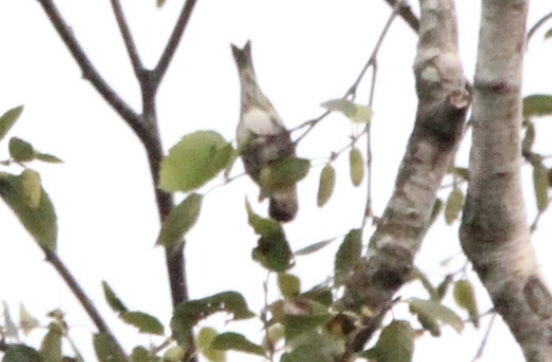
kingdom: Animalia
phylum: Chordata
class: Aves
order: Passeriformes
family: Fringillidae
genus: Spinus
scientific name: Spinus pinus
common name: Pine siskin
